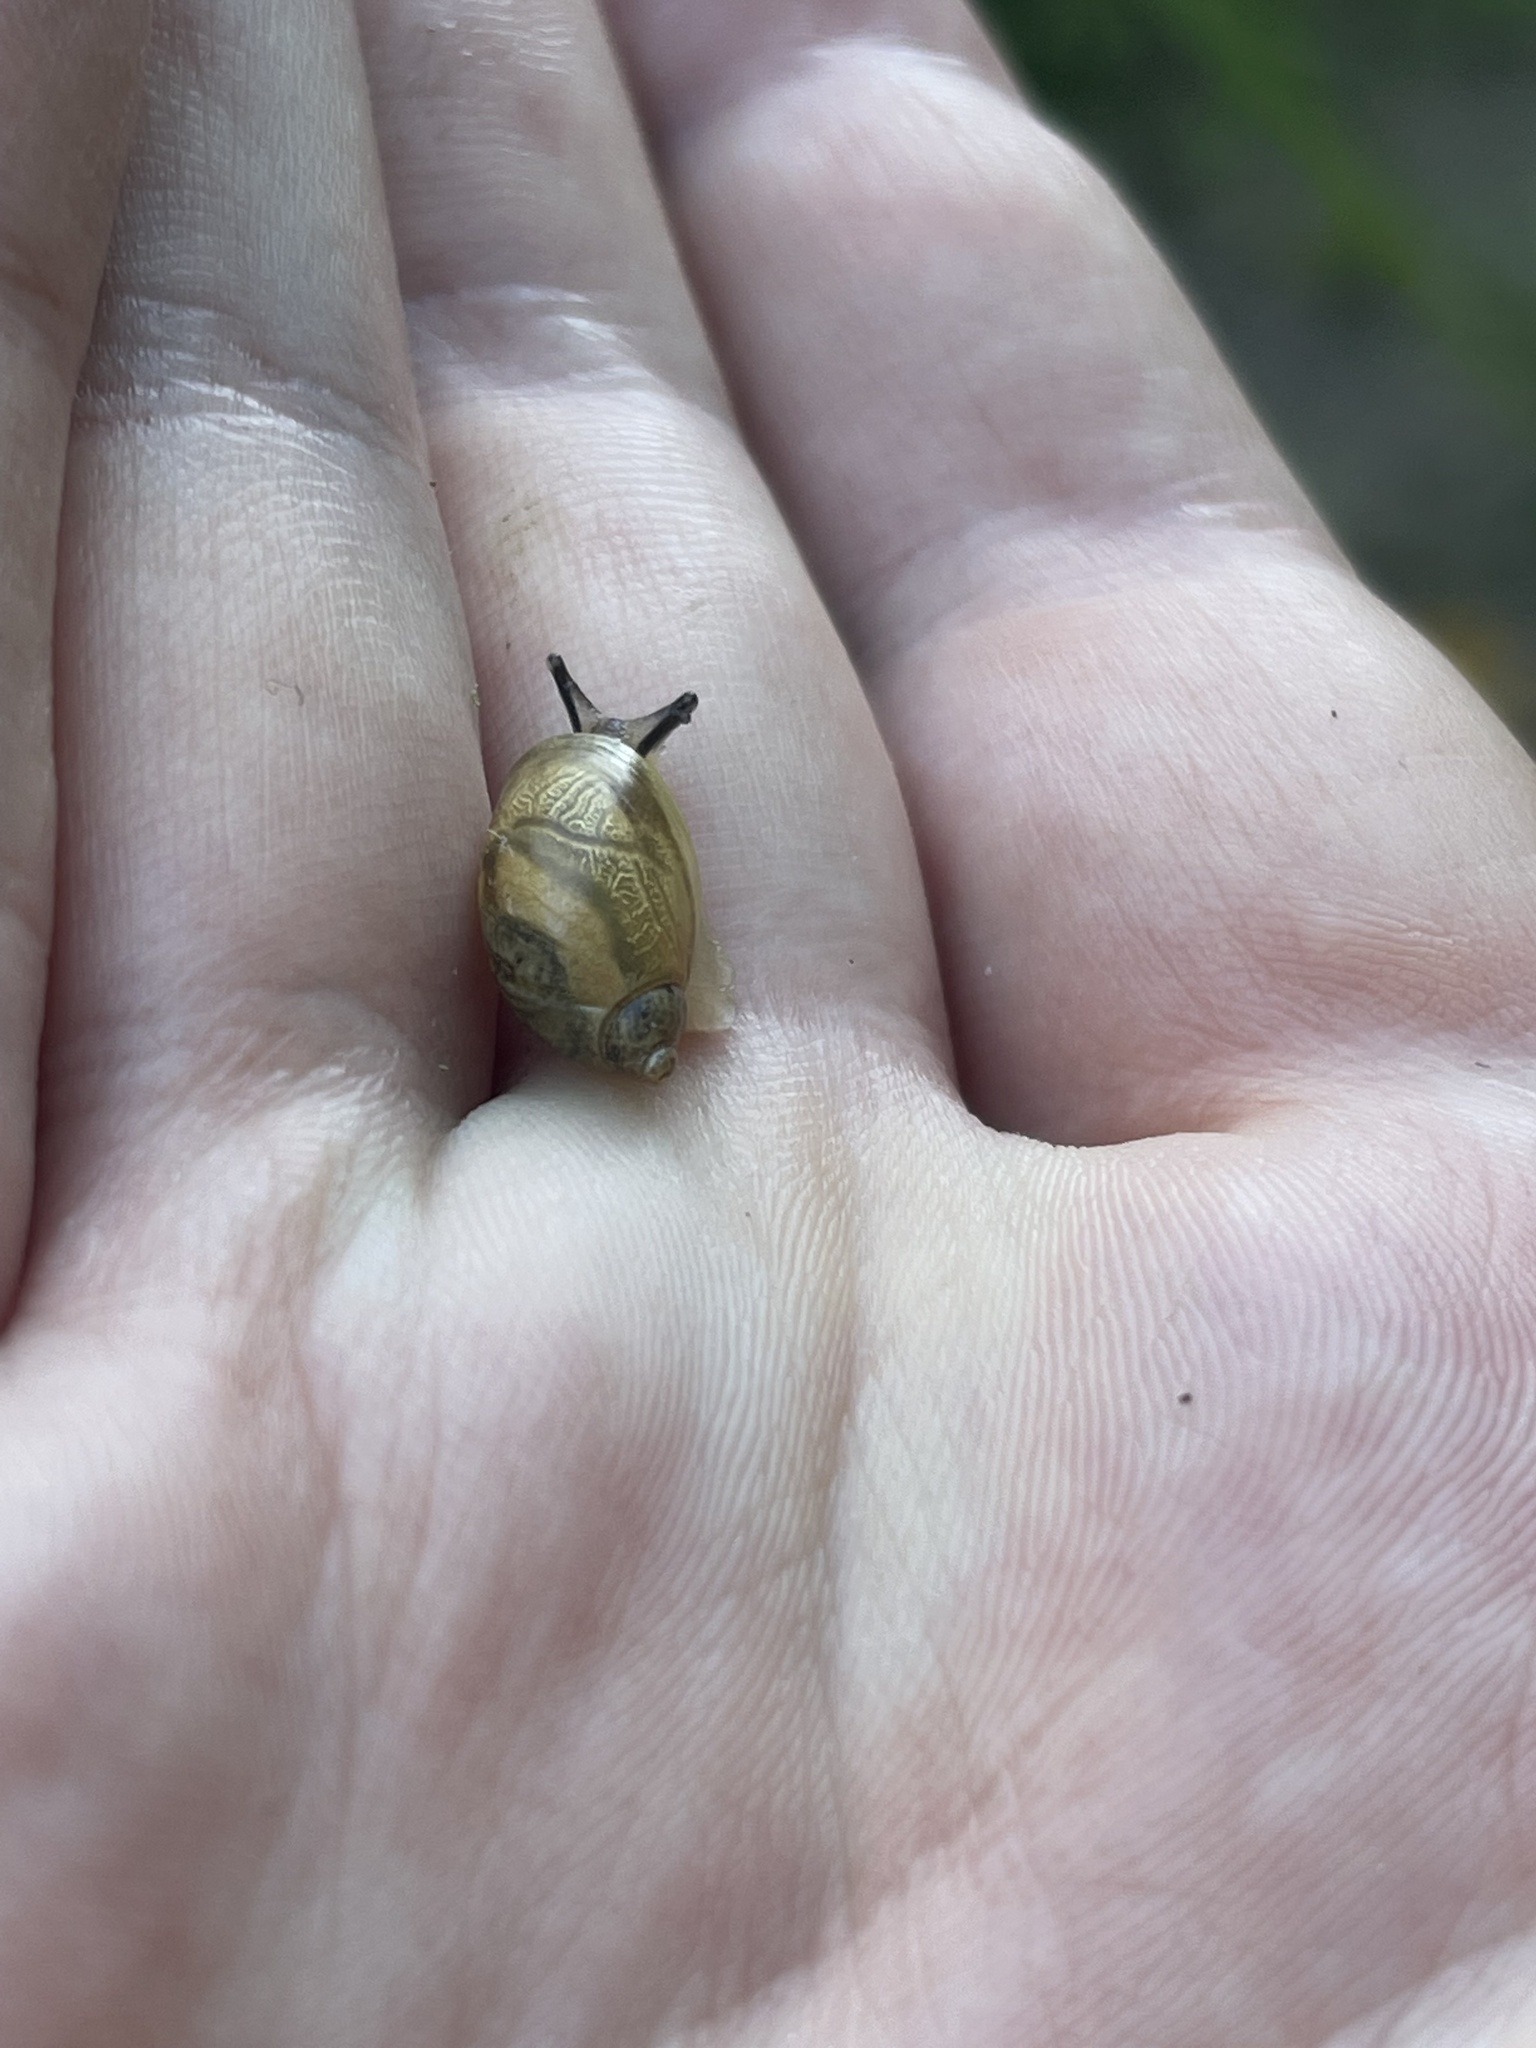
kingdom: Animalia
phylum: Mollusca
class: Gastropoda
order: Stylommatophora
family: Succineidae
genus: Succinea
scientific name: Succinea putris
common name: European ambersnail
